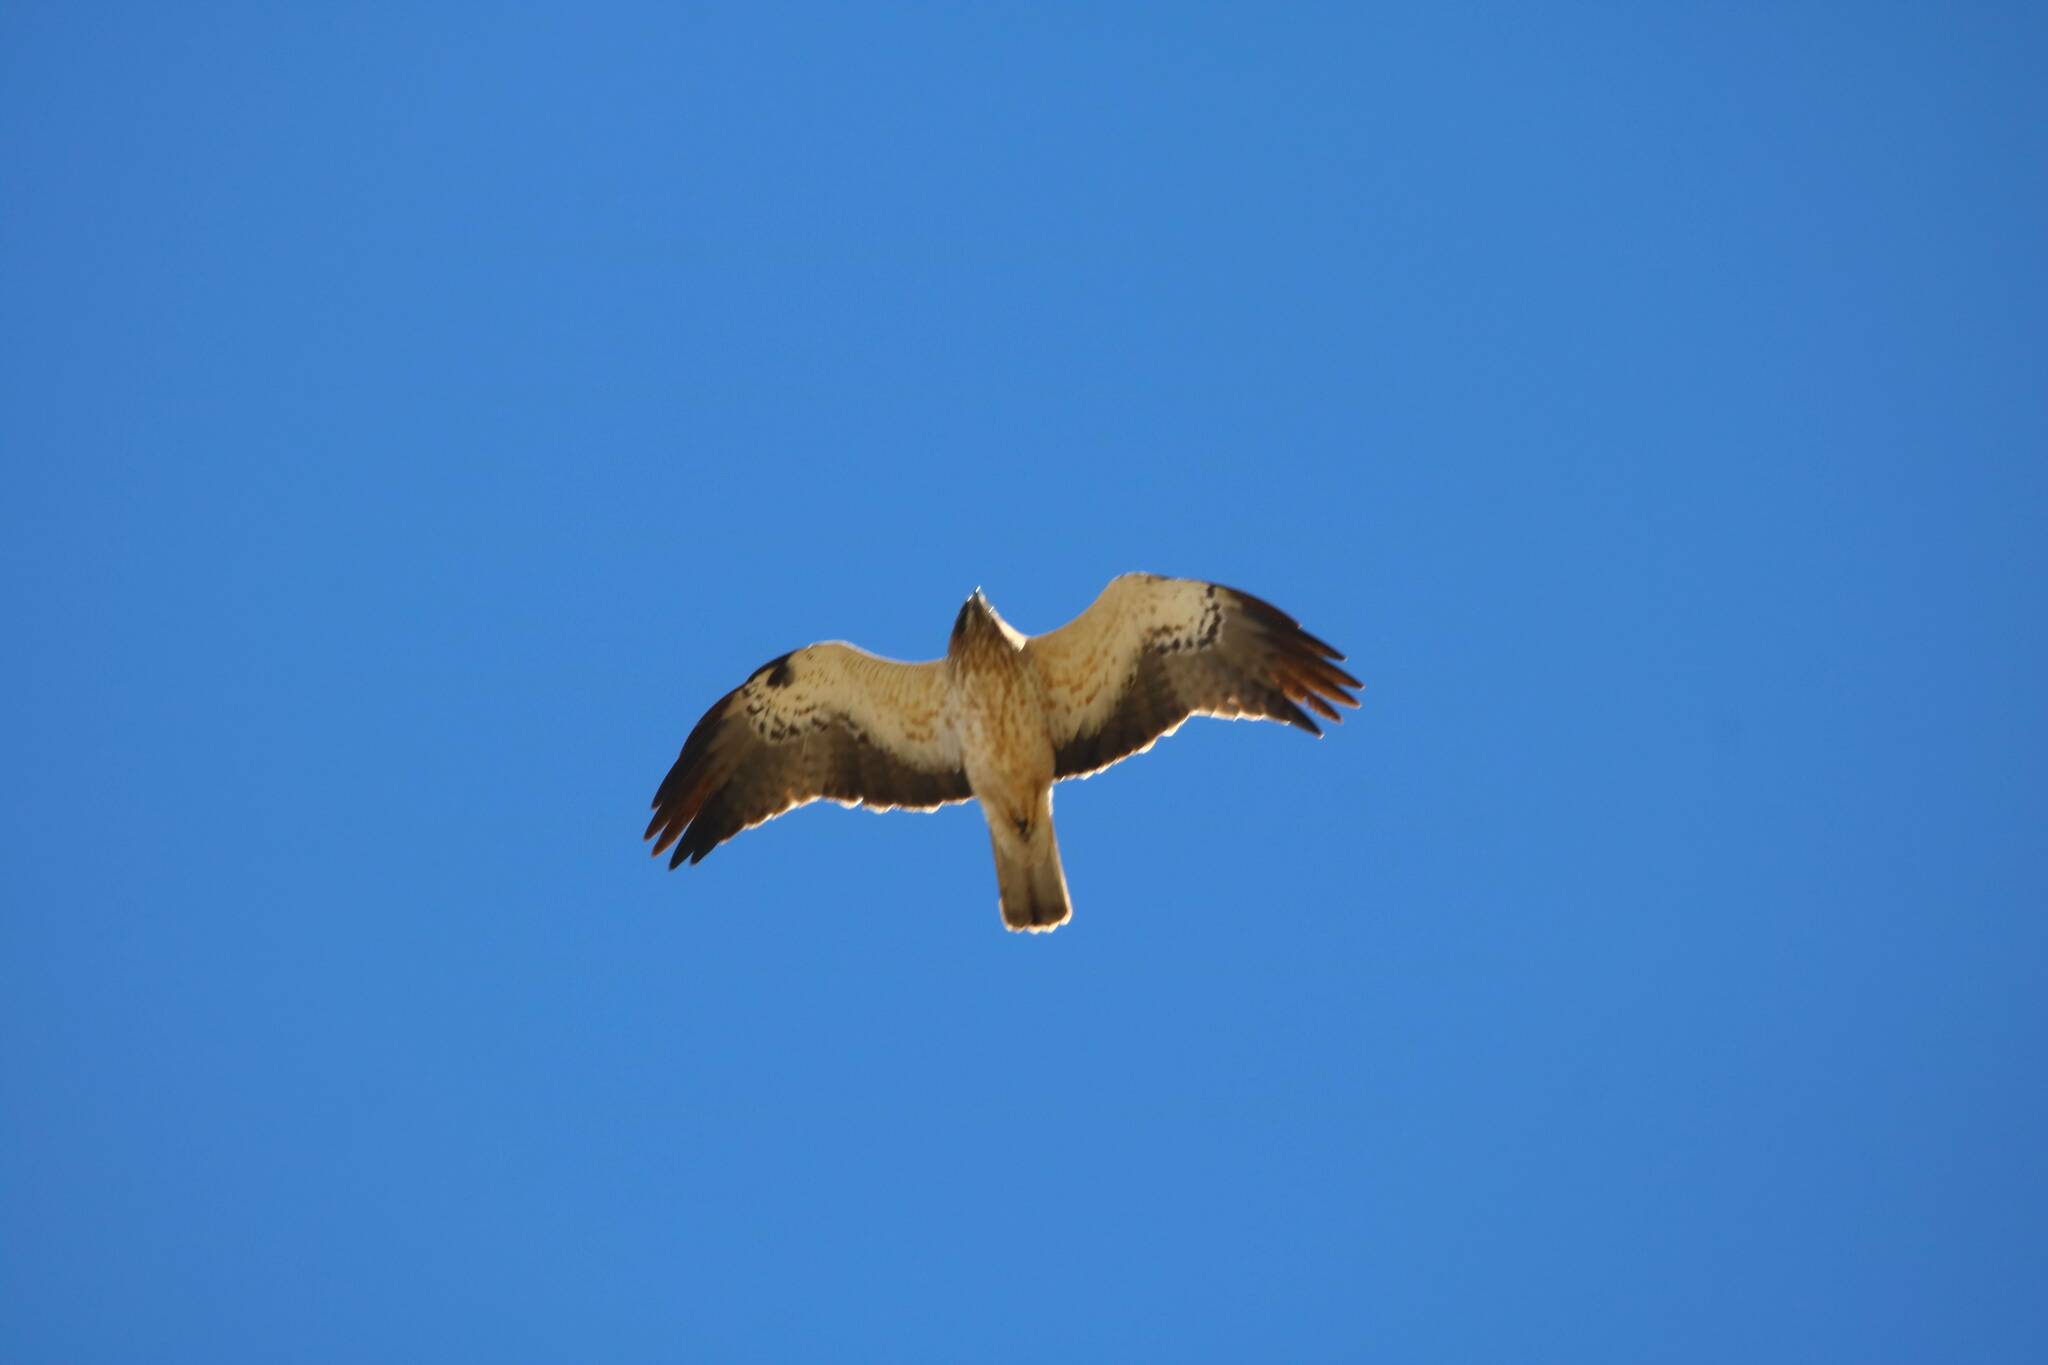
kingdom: Animalia
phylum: Chordata
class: Aves
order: Accipitriformes
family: Accipitridae
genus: Hieraaetus
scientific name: Hieraaetus pennatus
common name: Booted eagle
